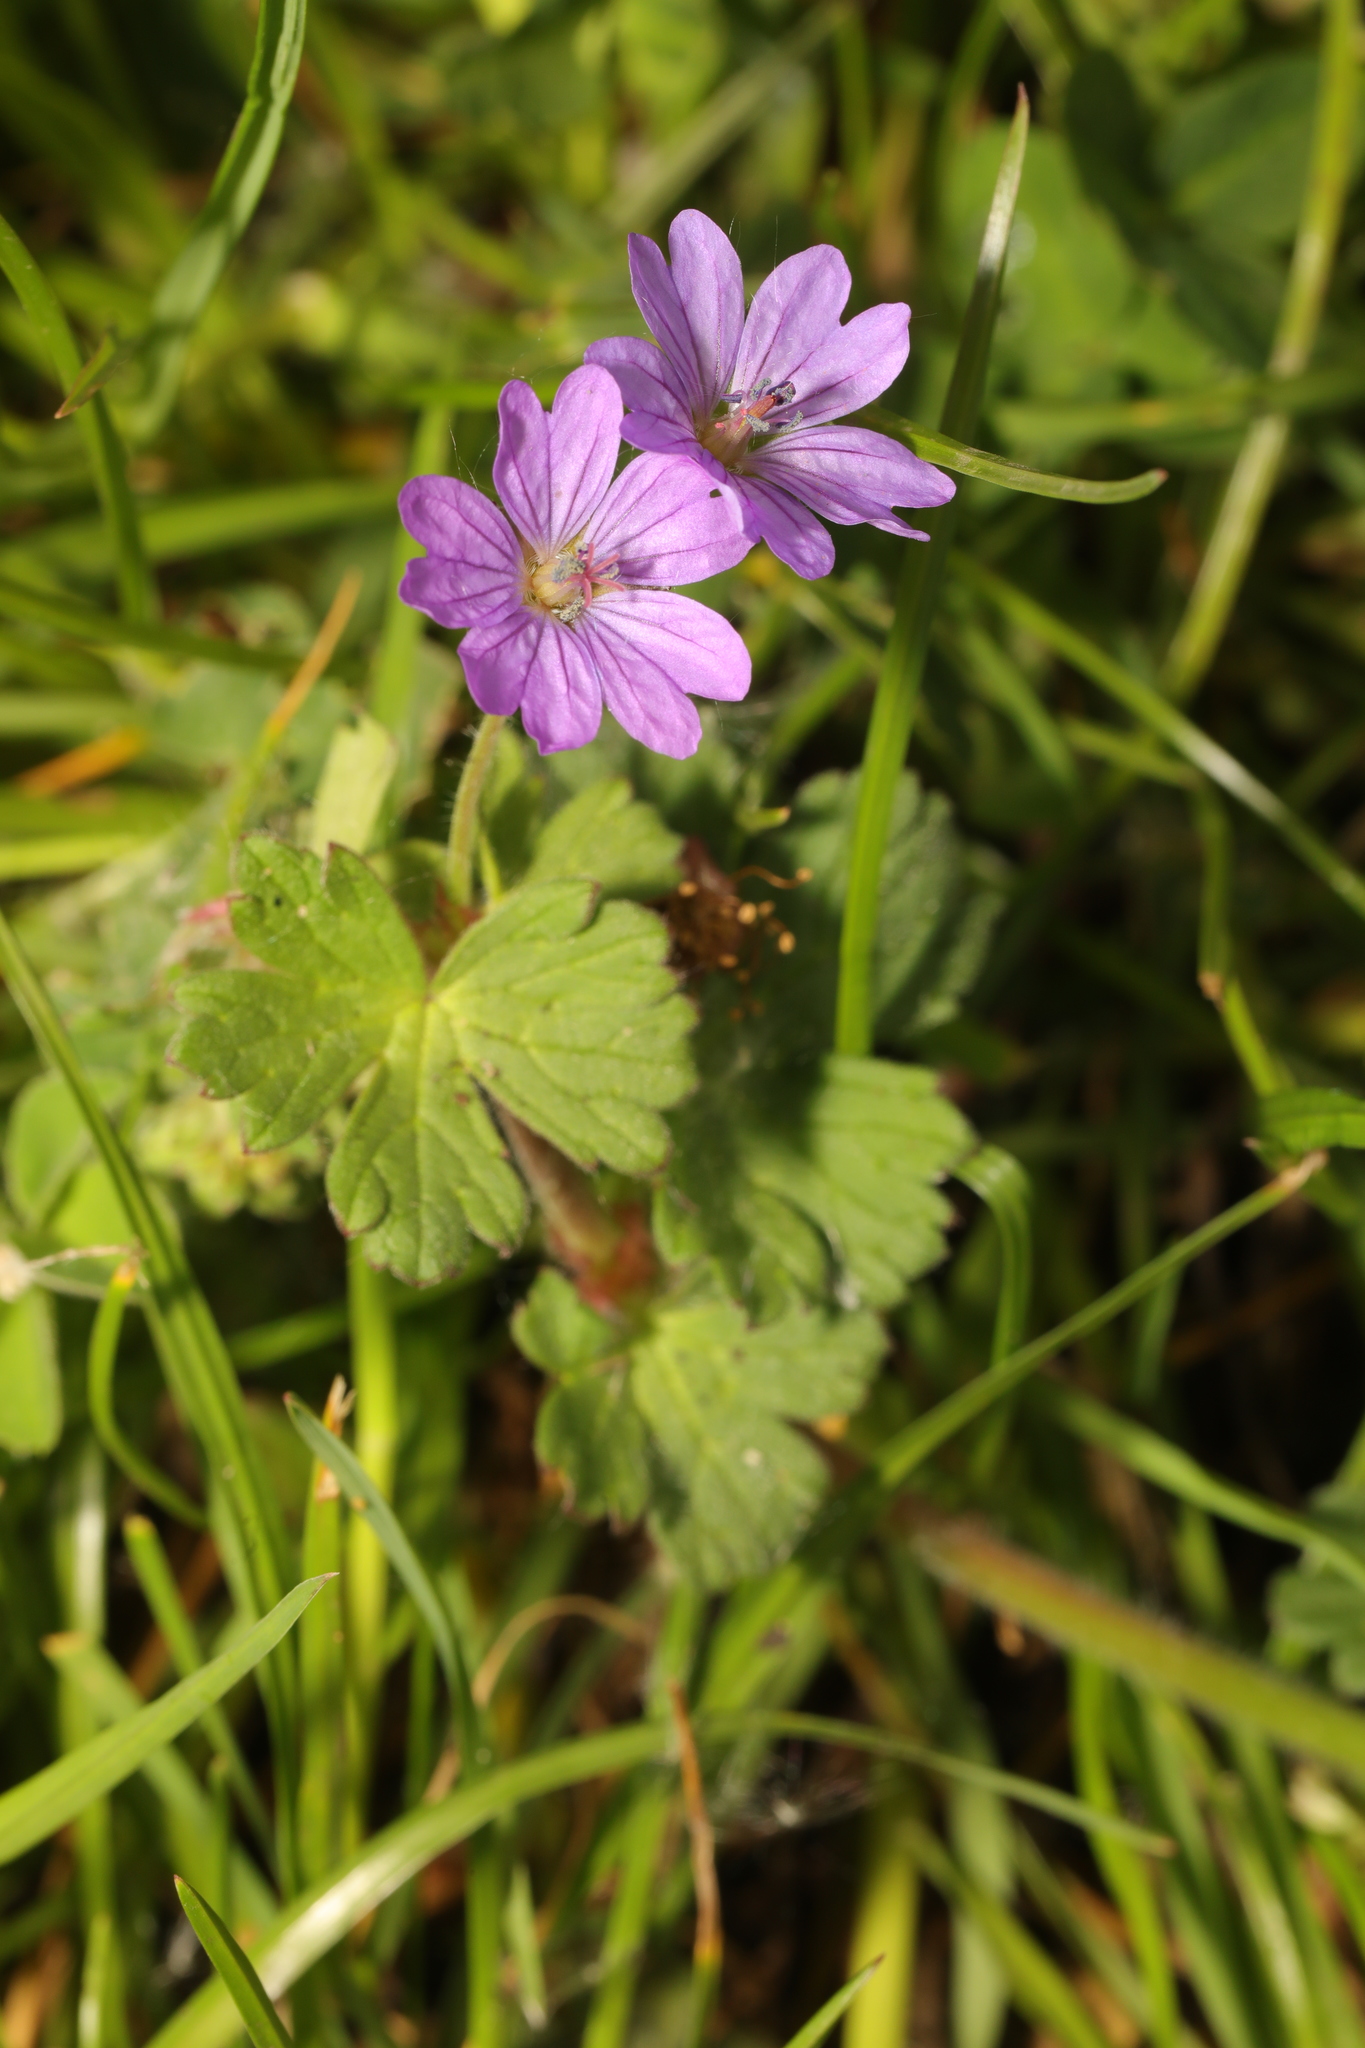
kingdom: Plantae
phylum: Tracheophyta
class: Magnoliopsida
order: Geraniales
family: Geraniaceae
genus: Geranium
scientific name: Geranium pyrenaicum
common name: Hedgerow crane's-bill
